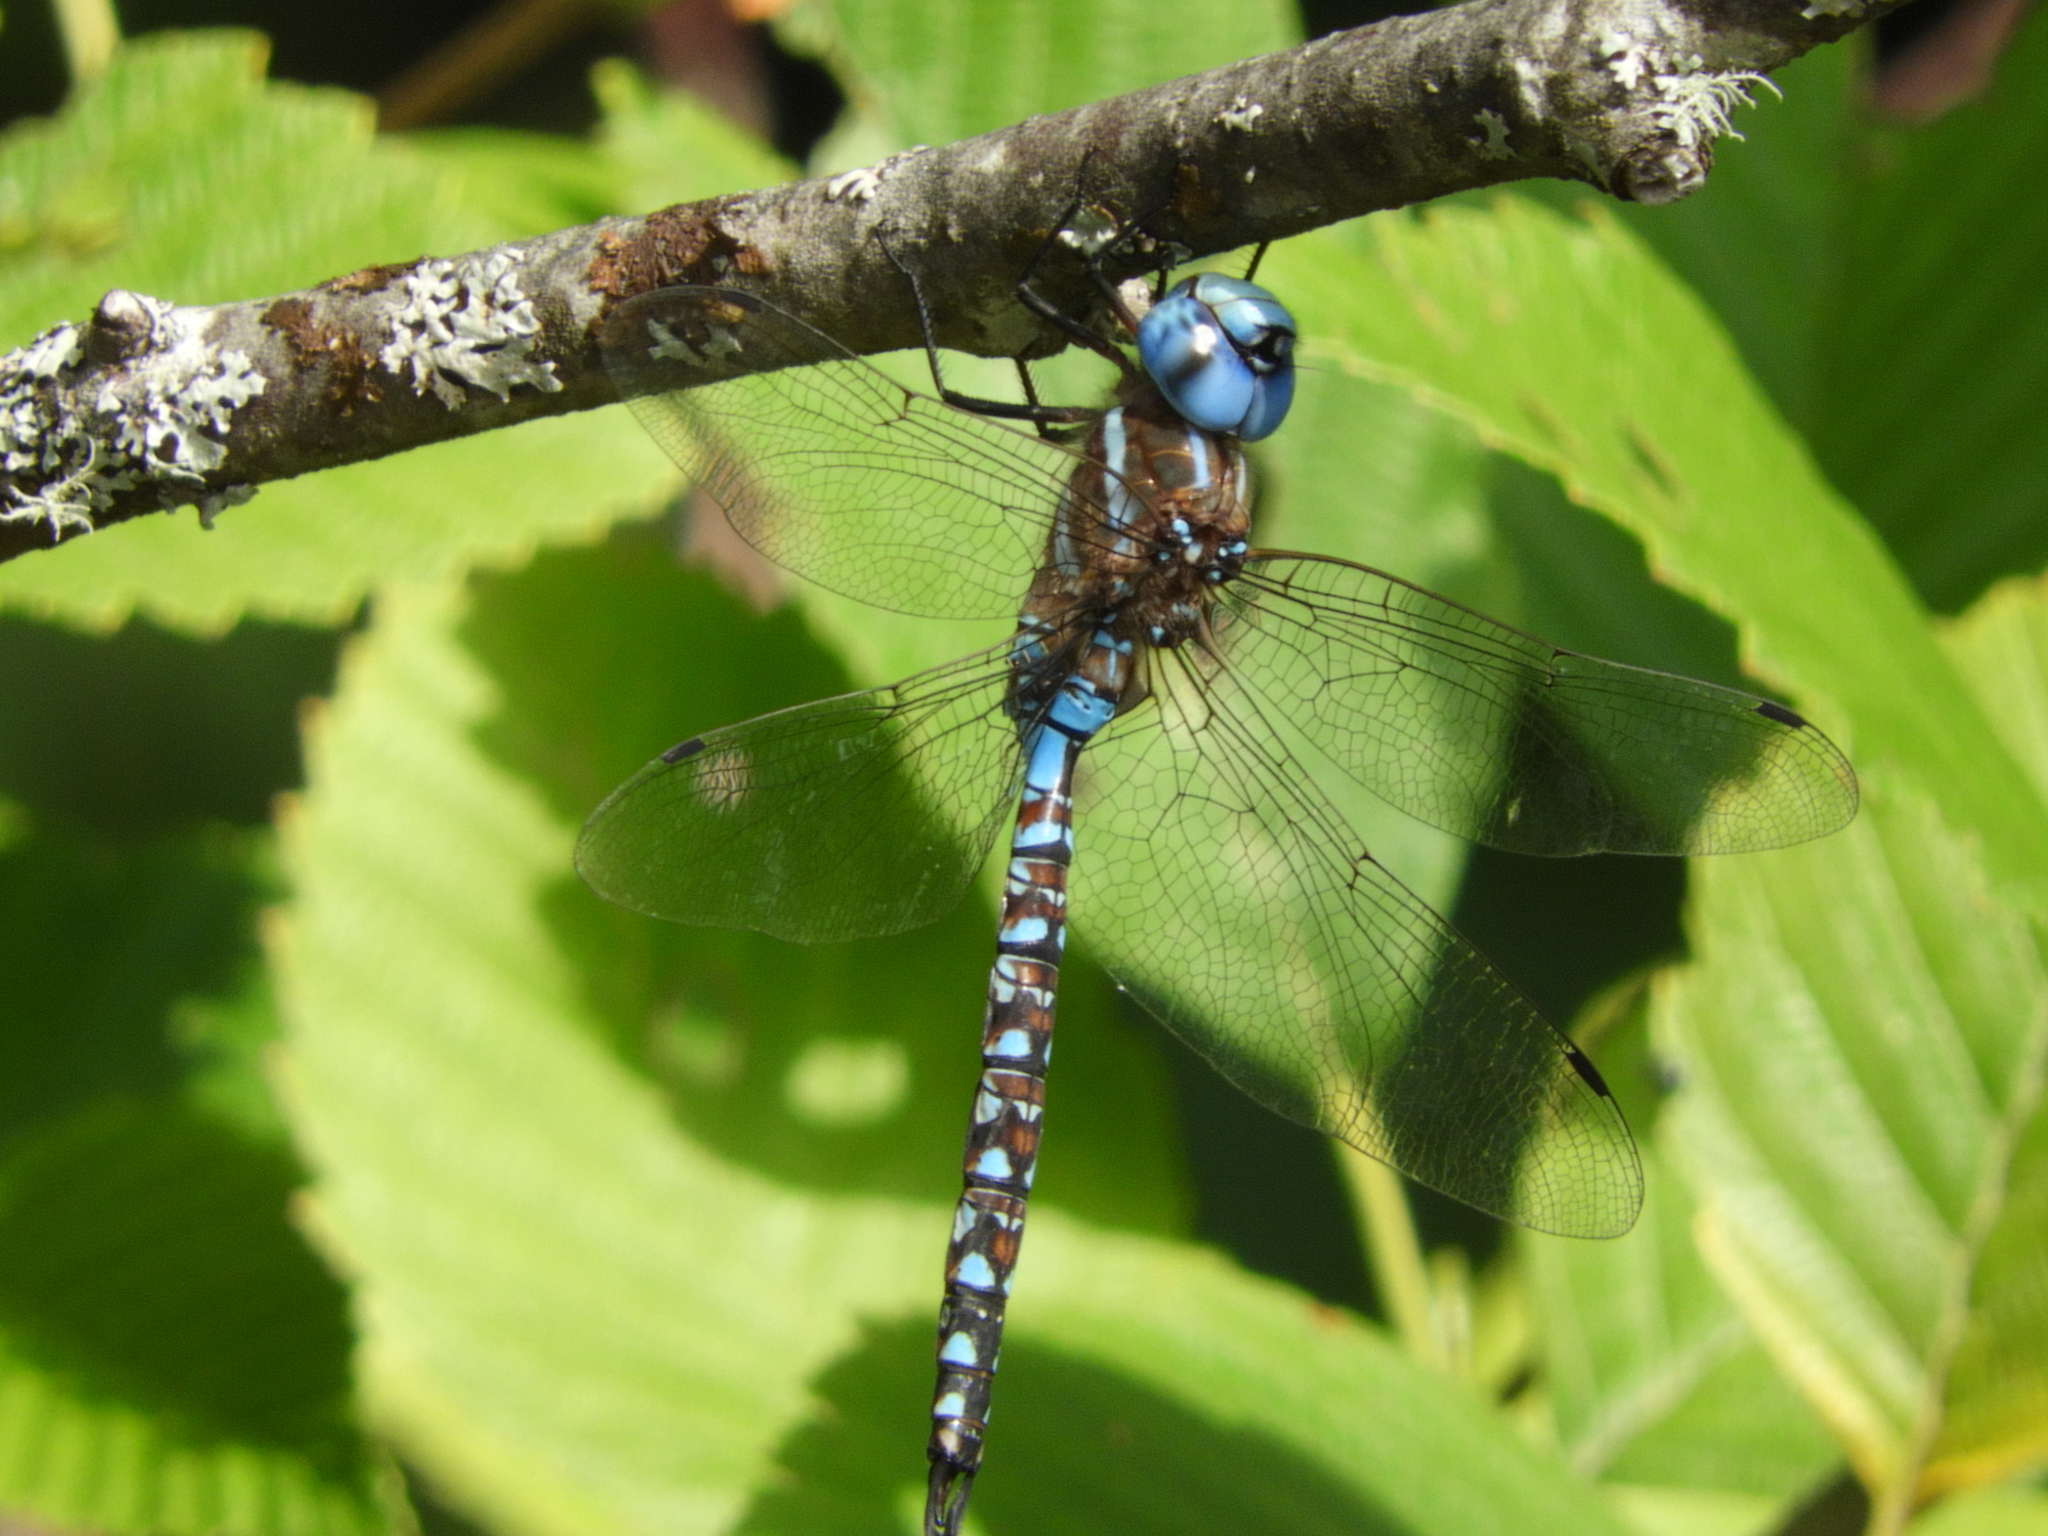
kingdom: Animalia
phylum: Arthropoda
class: Insecta
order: Odonata
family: Aeshnidae
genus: Rhionaeschna
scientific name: Rhionaeschna multicolor
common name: Blue-eyed darner
